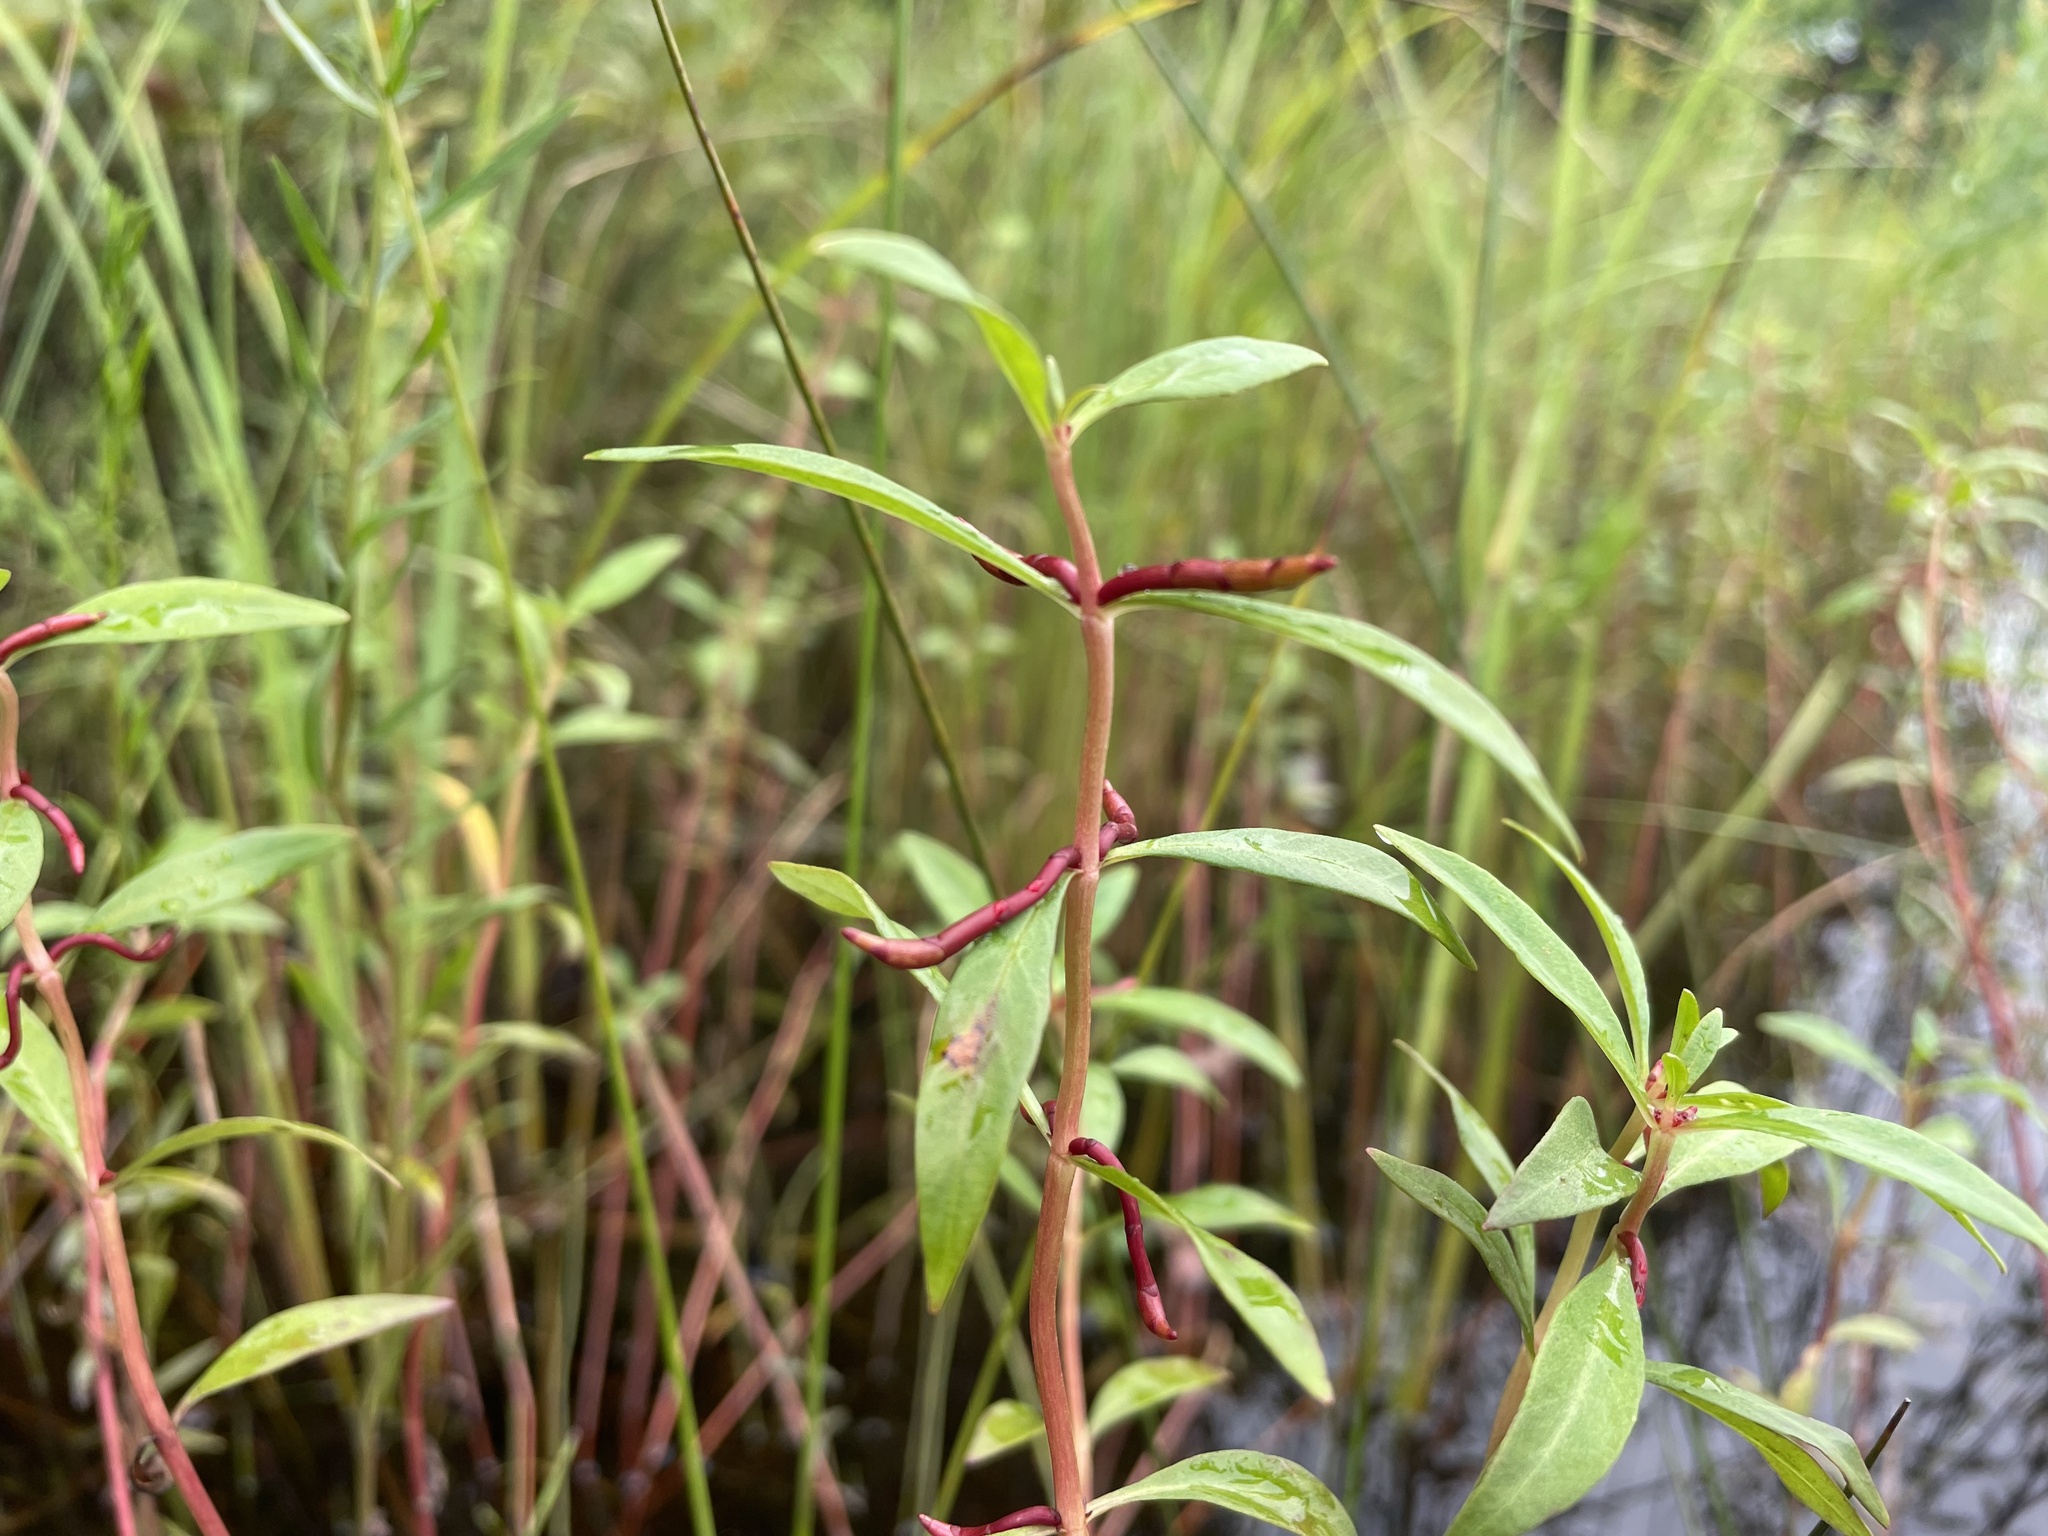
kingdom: Plantae
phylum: Tracheophyta
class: Magnoliopsida
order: Ericales
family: Primulaceae
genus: Lysimachia
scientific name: Lysimachia terrestris
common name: Lake loosestrife
